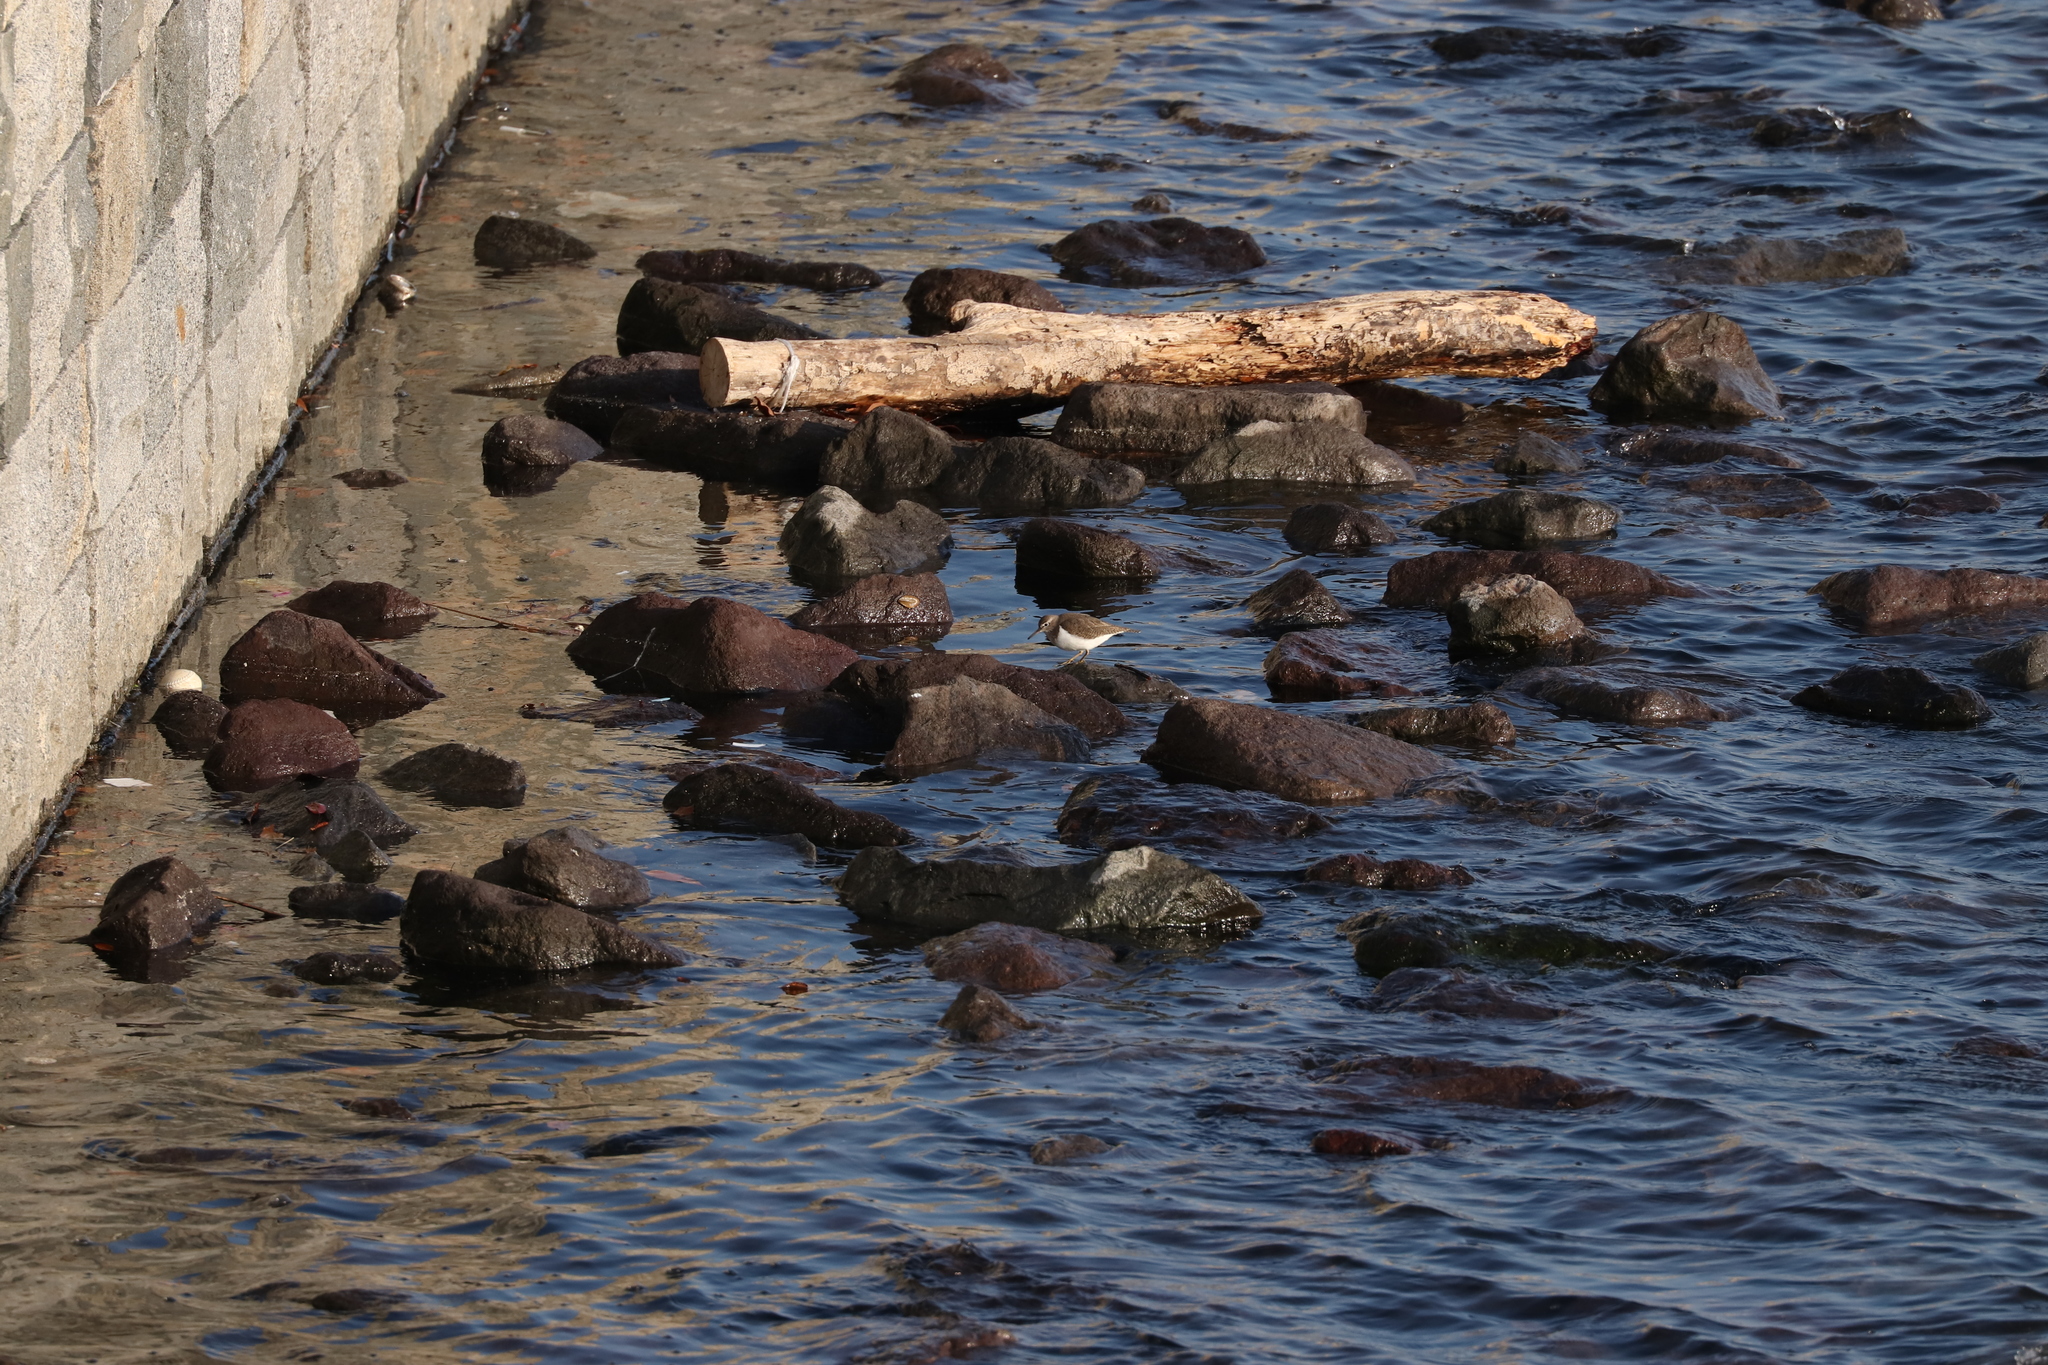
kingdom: Animalia
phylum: Chordata
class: Aves
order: Charadriiformes
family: Scolopacidae
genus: Actitis
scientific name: Actitis hypoleucos
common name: Common sandpiper
